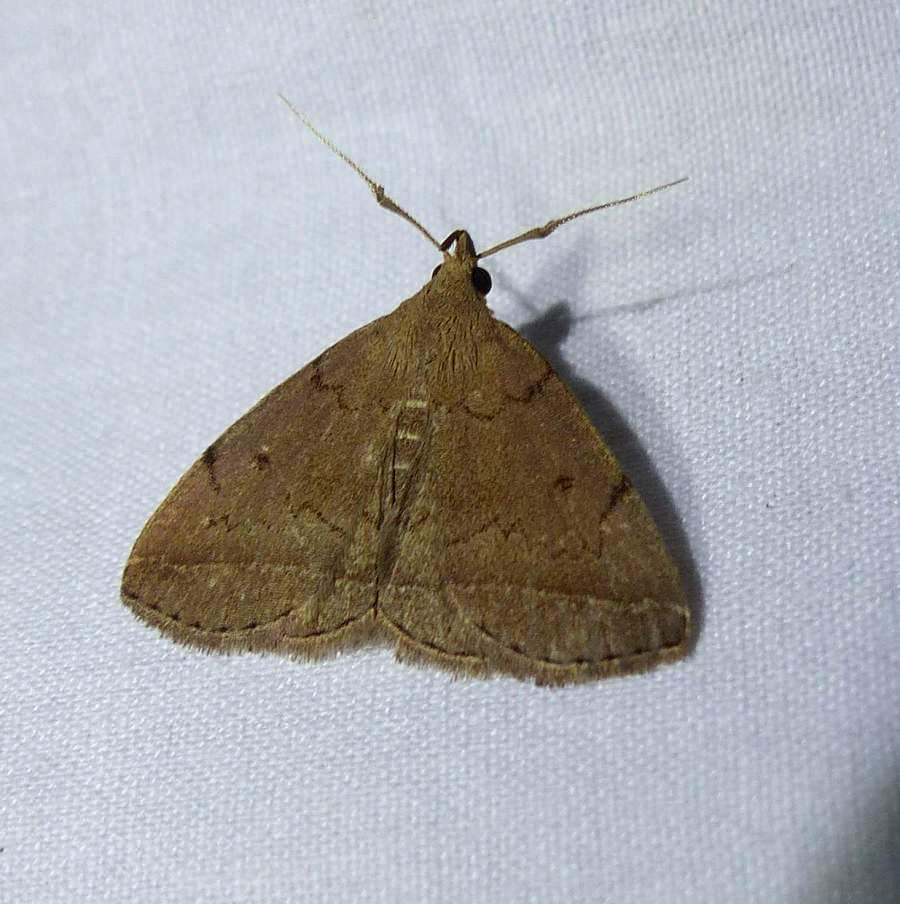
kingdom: Animalia
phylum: Arthropoda
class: Insecta
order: Lepidoptera
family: Erebidae
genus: Zanclognatha
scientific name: Zanclognatha protumnusalis
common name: Complex fan-foot
